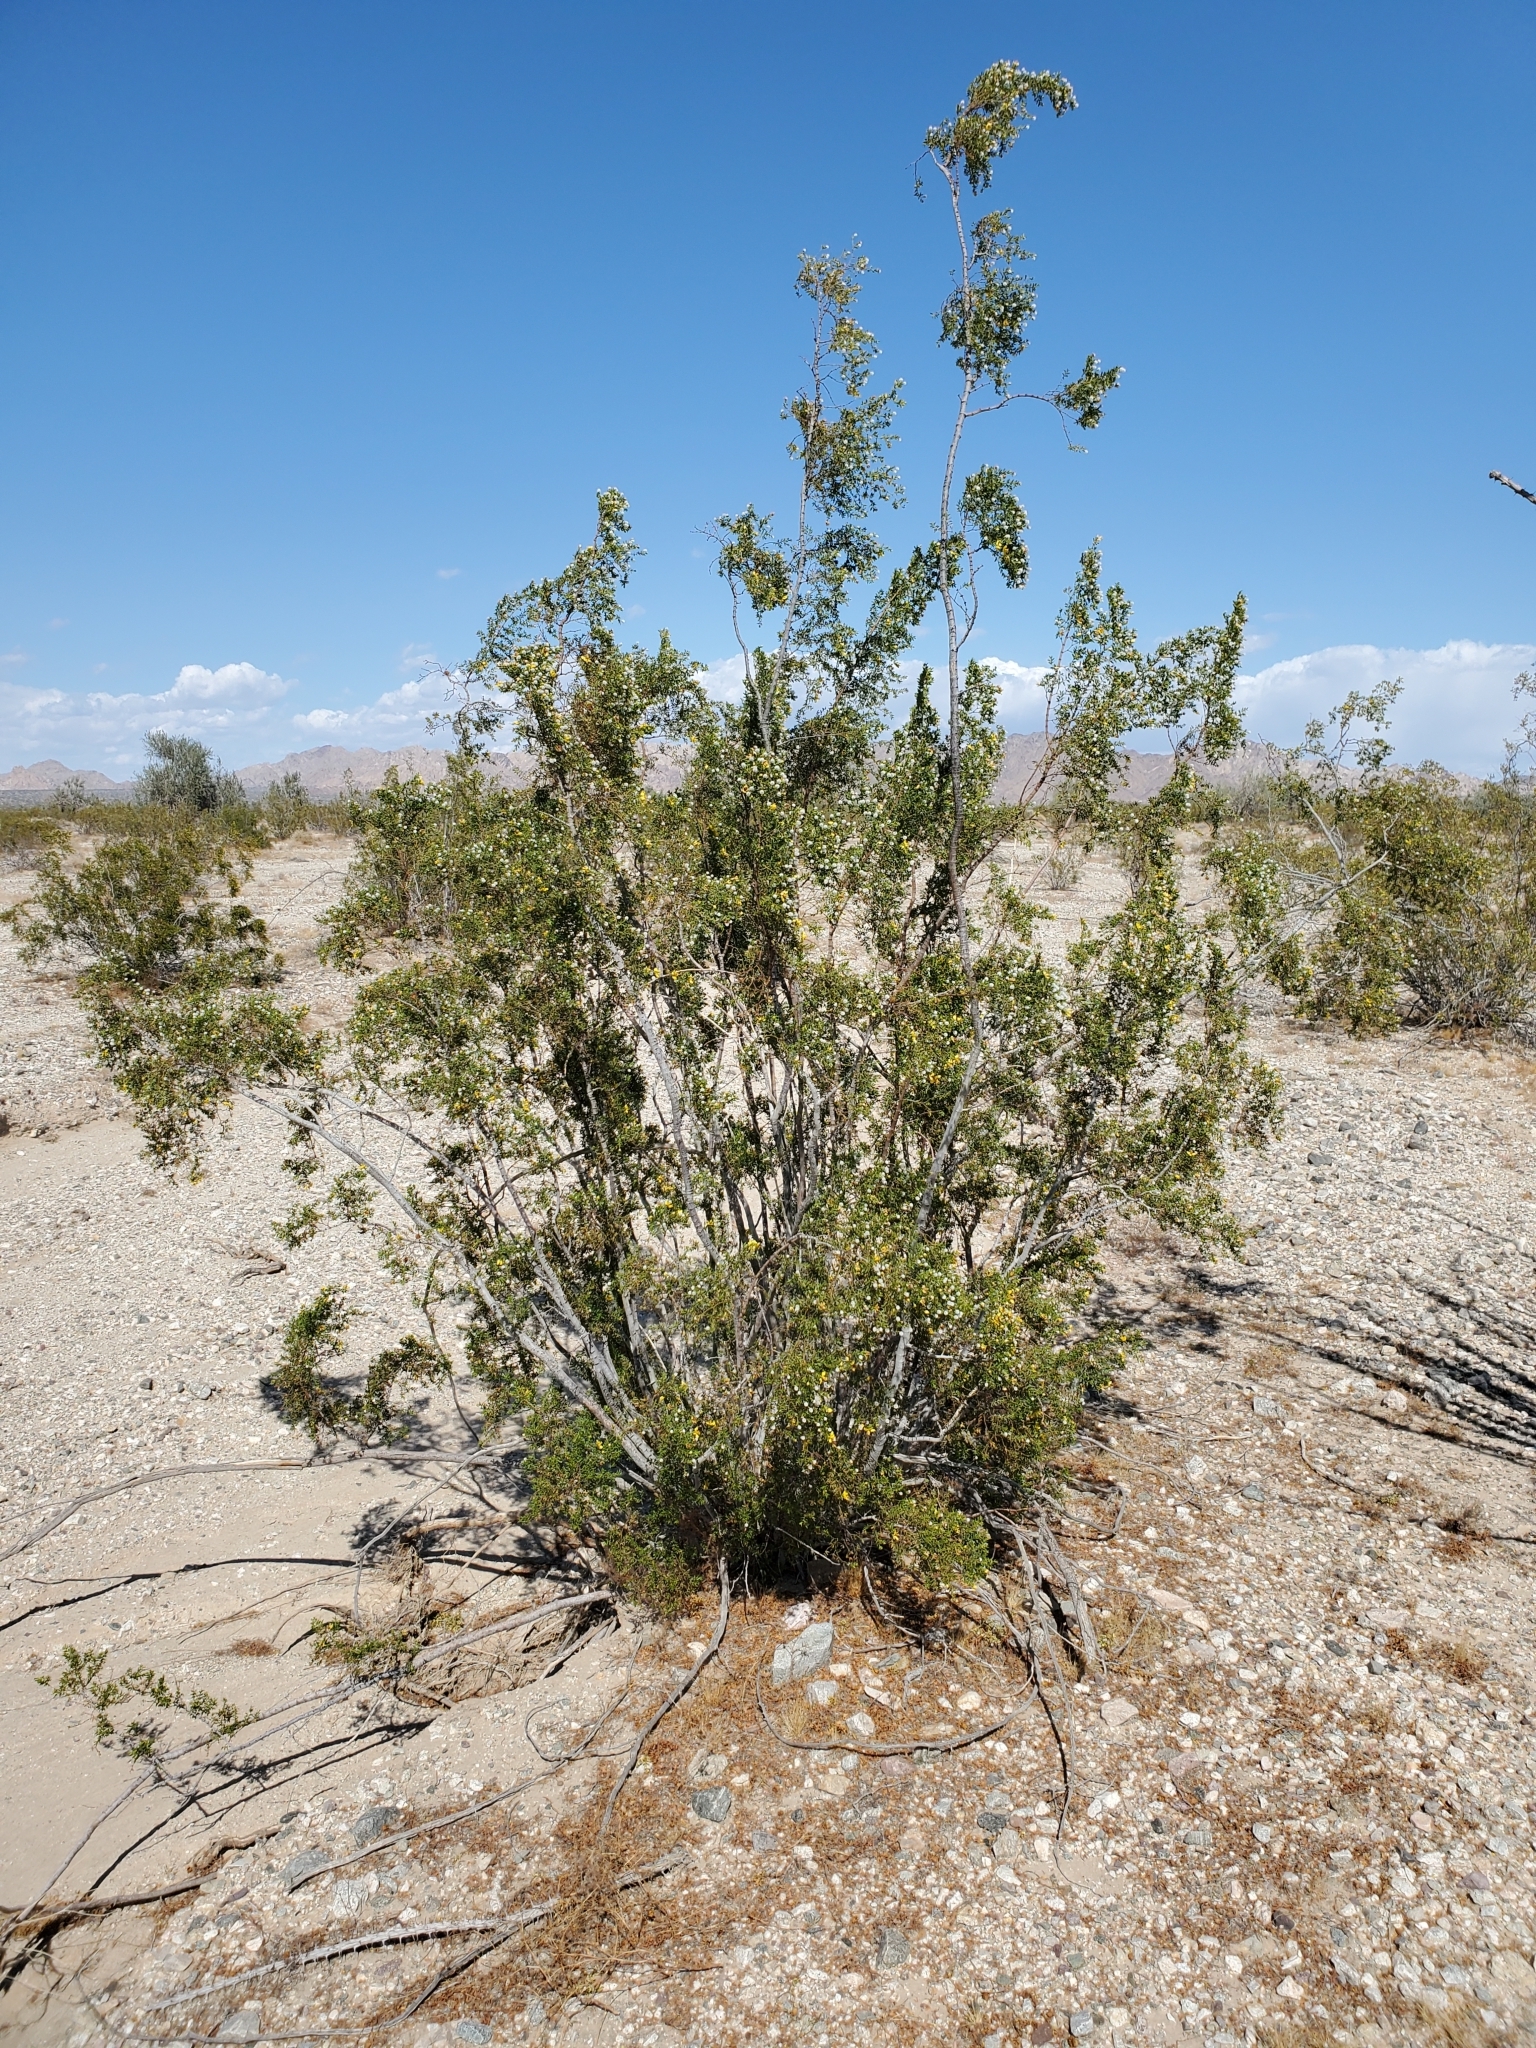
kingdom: Plantae
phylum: Tracheophyta
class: Magnoliopsida
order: Zygophyllales
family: Zygophyllaceae
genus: Larrea
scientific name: Larrea tridentata
